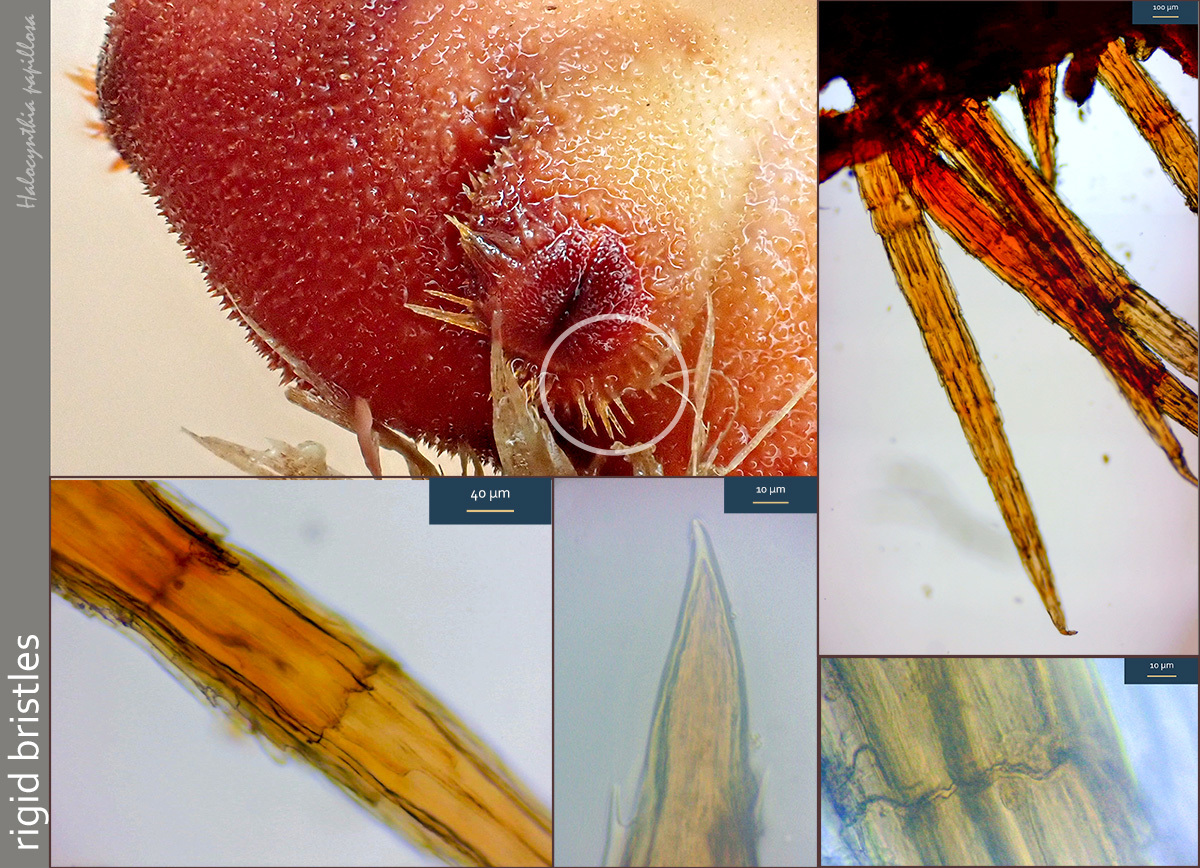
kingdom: Animalia
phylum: Chordata
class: Ascidiacea
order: Stolidobranchia
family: Pyuridae
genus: Halocynthia
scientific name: Halocynthia papillosa
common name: Red sea-squirt
